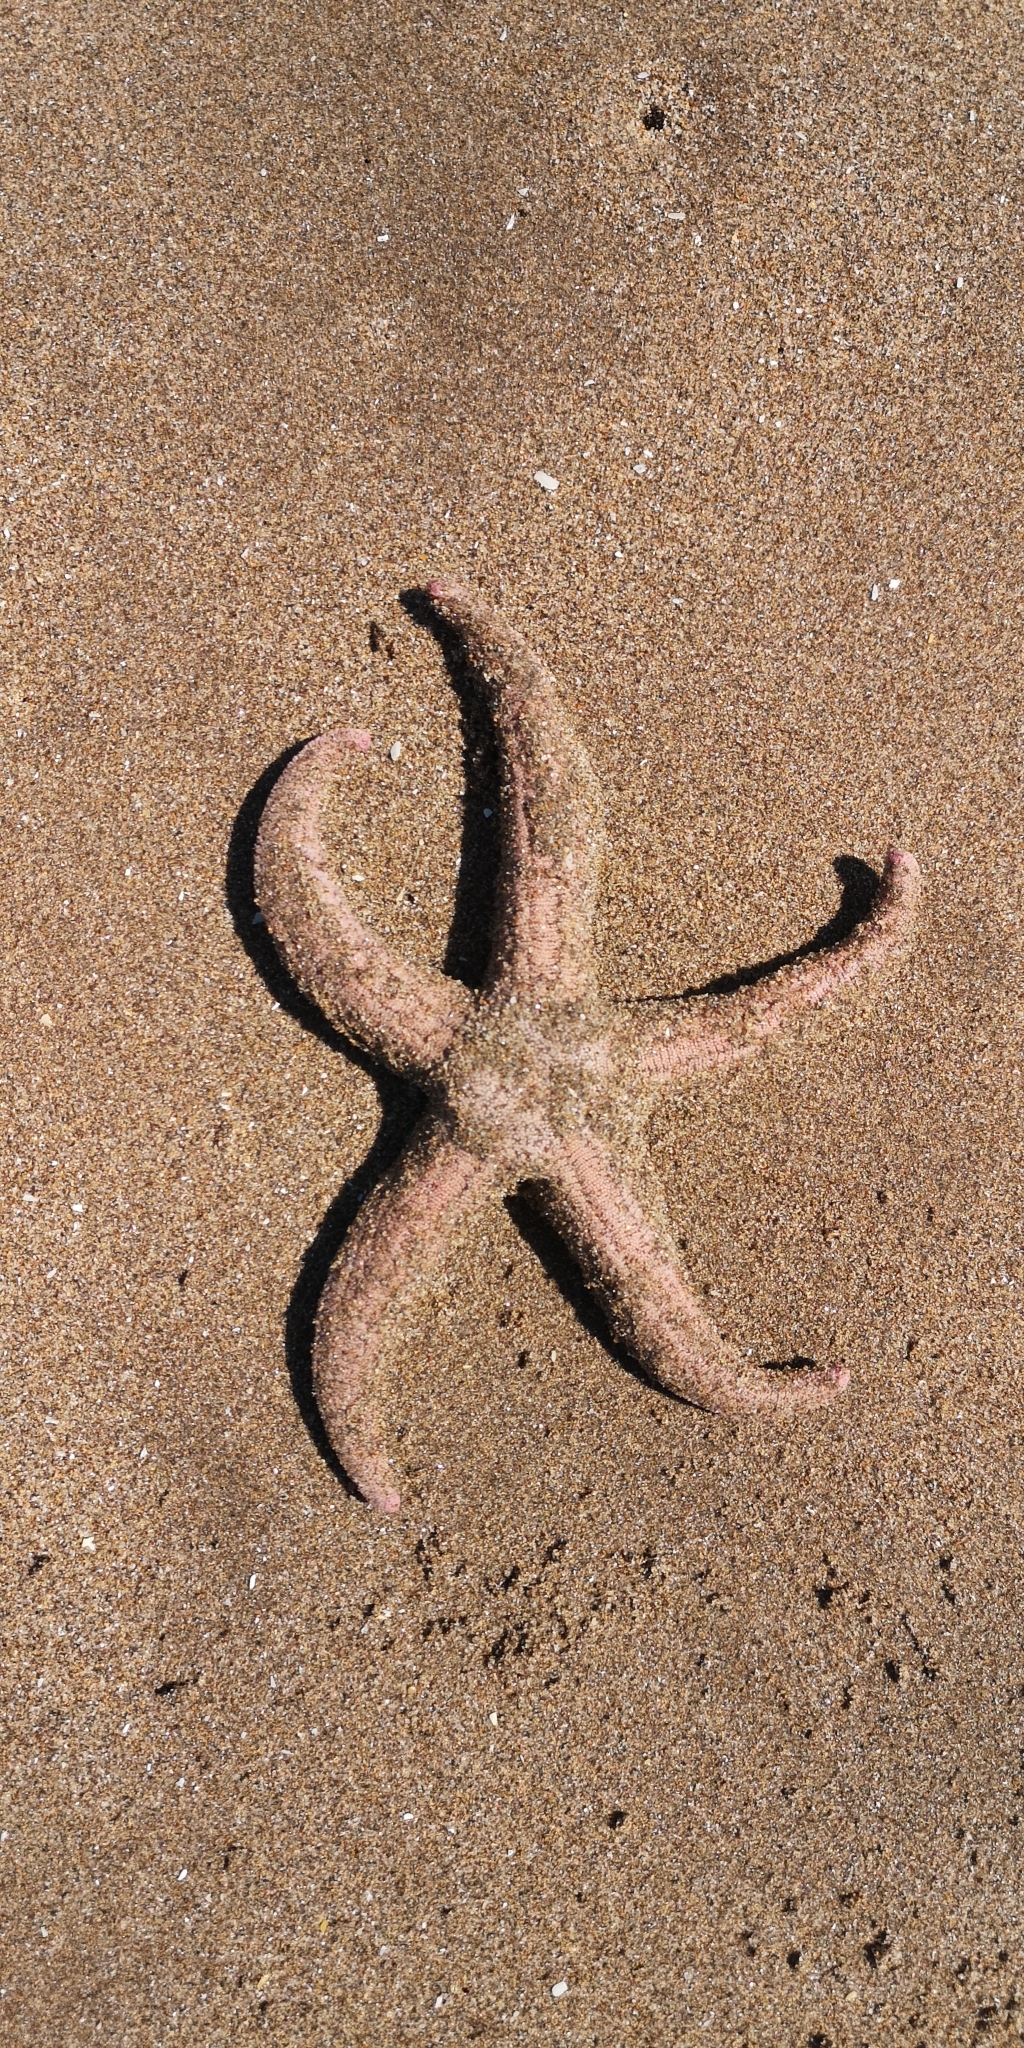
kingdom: Animalia
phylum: Echinodermata
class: Asteroidea
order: Forcipulatida
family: Stichasteridae
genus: Stichaster
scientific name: Stichaster striatus
